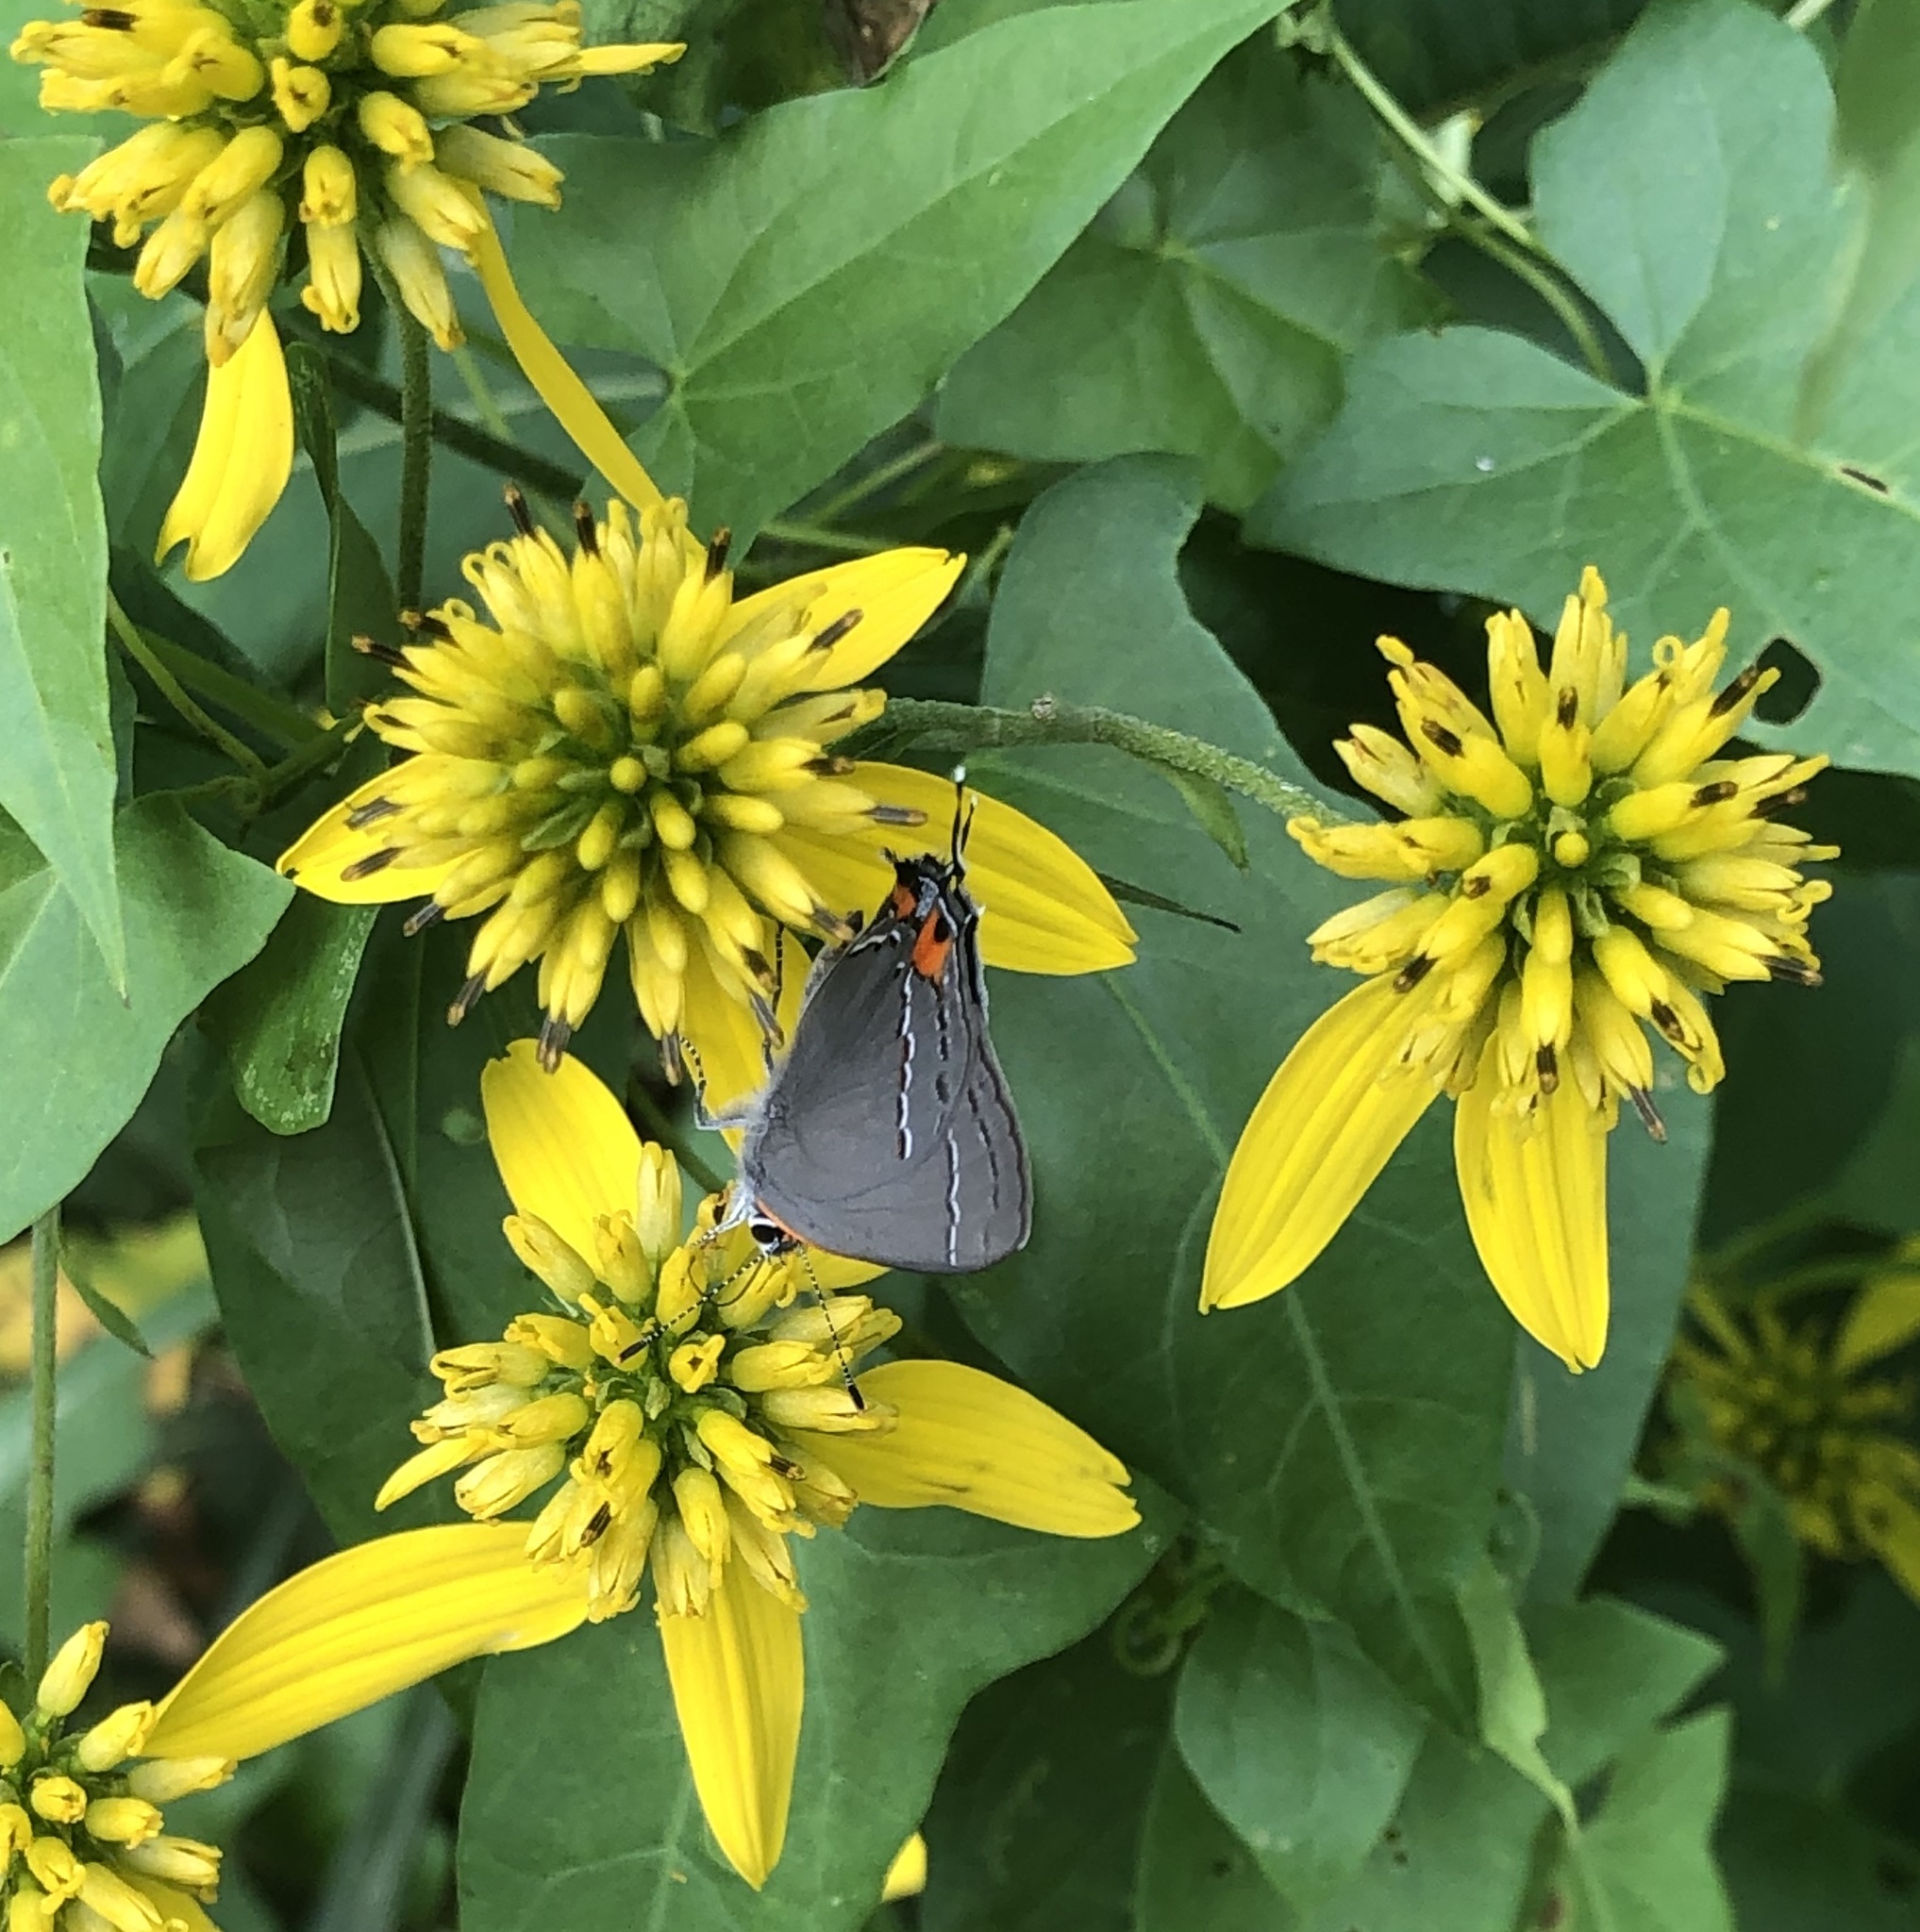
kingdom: Animalia
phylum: Arthropoda
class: Insecta
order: Lepidoptera
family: Lycaenidae
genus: Strymon
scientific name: Strymon melinus
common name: Gray hairstreak
